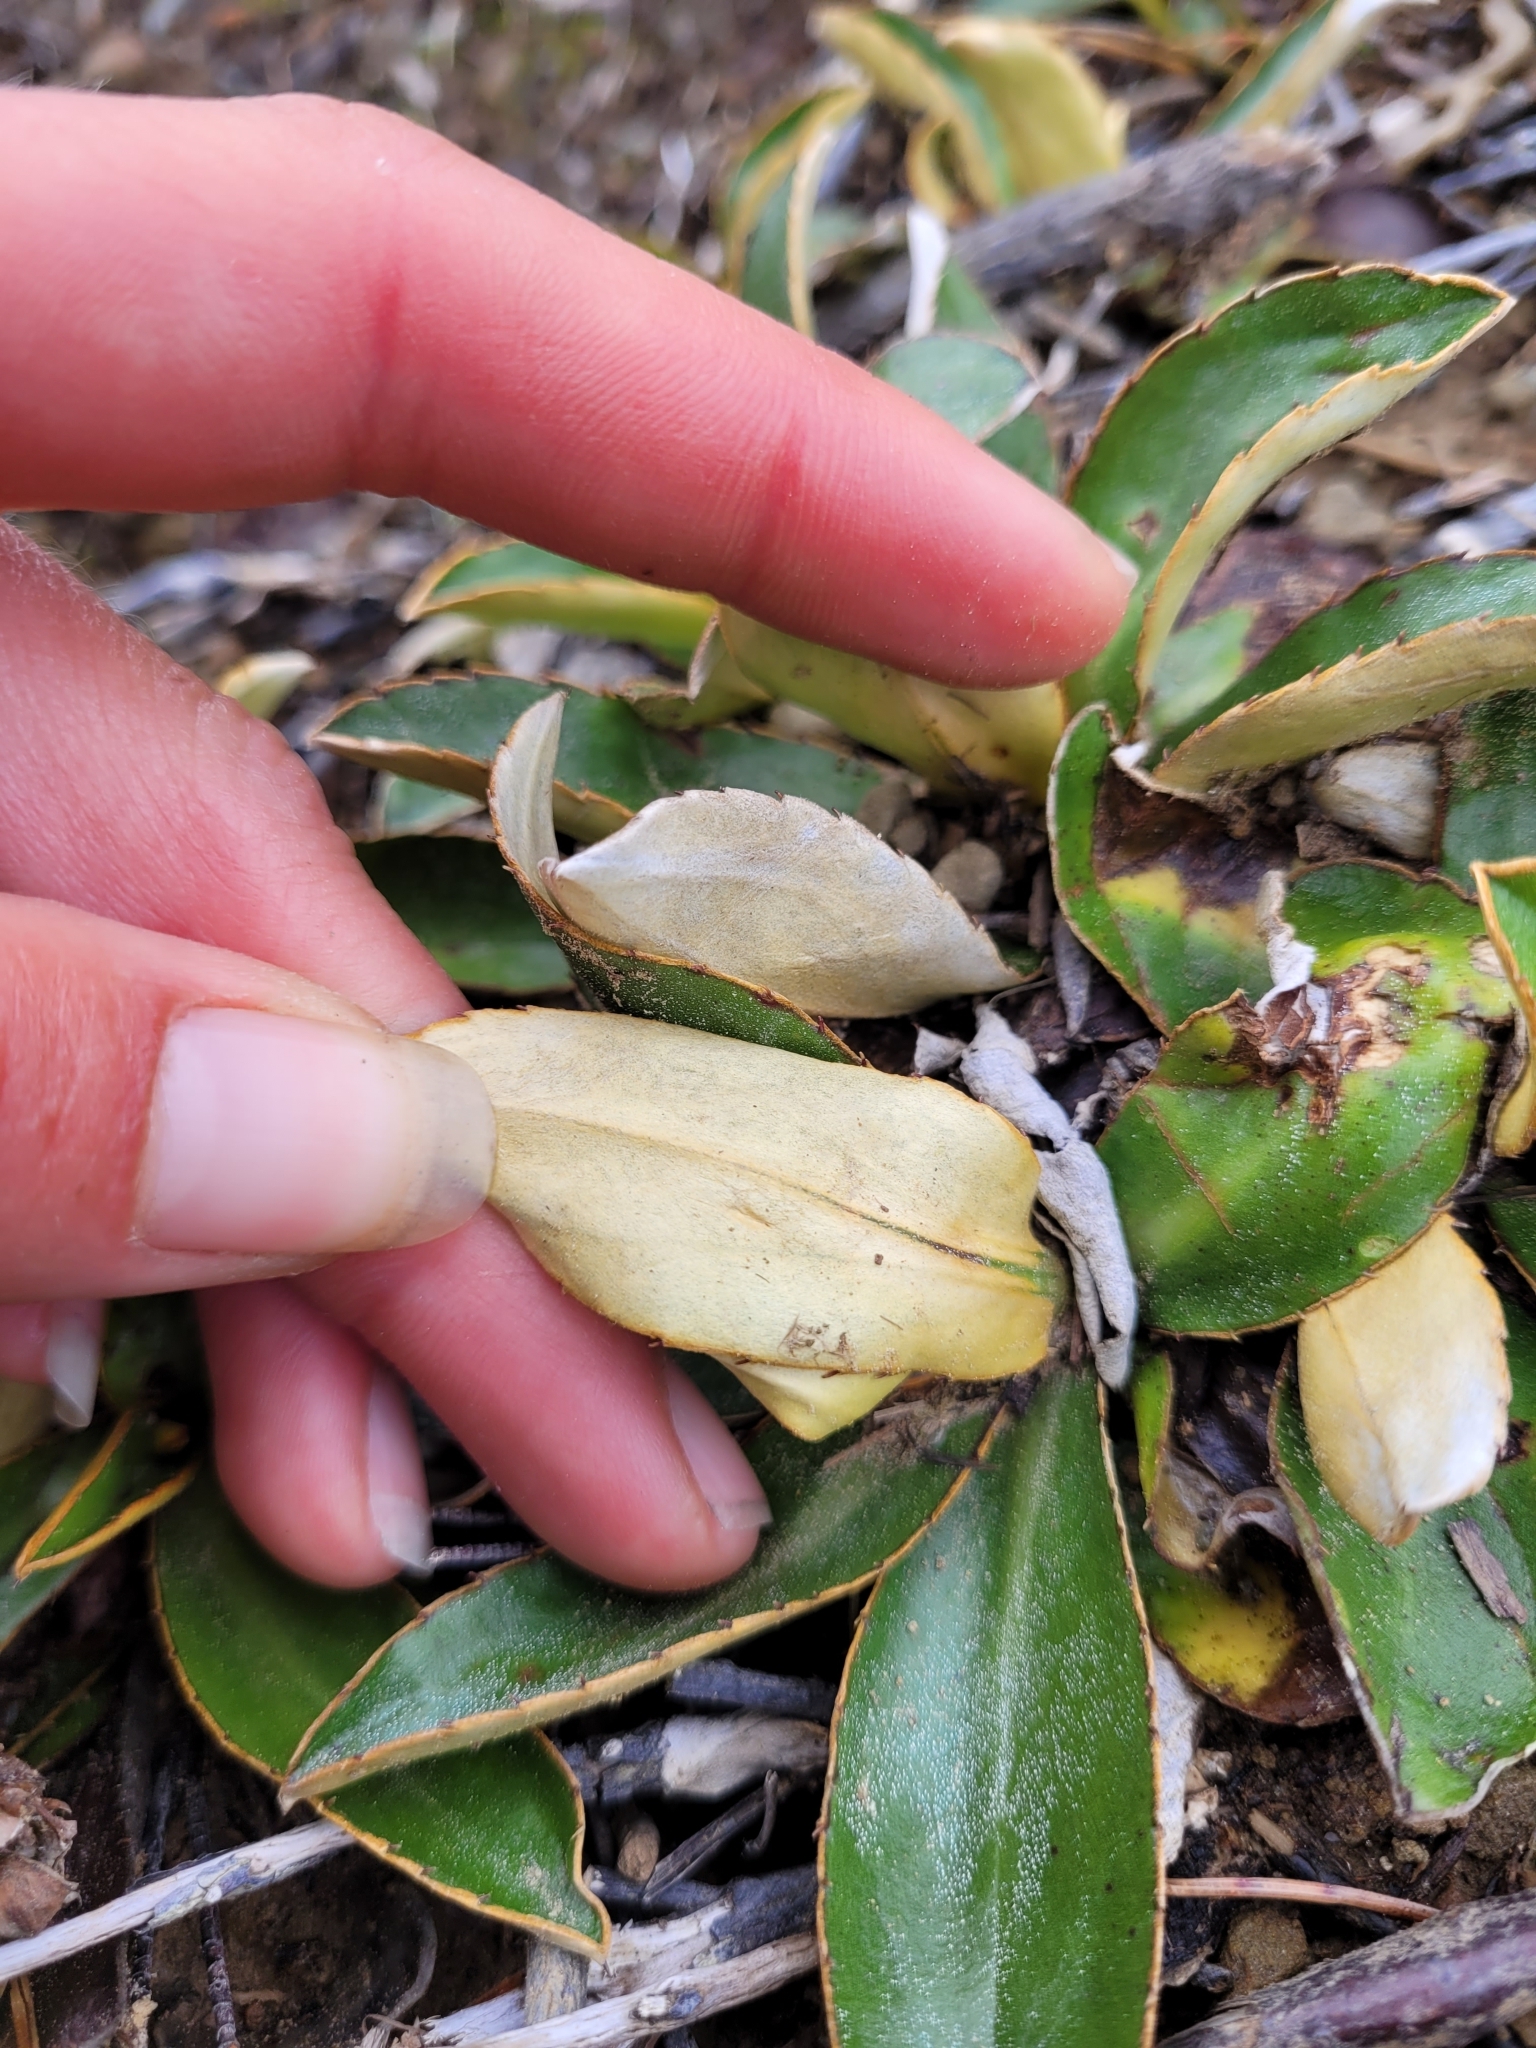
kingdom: Plantae
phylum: Tracheophyta
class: Magnoliopsida
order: Asterales
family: Asteraceae
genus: Celmisia
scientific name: Celmisia dallii
